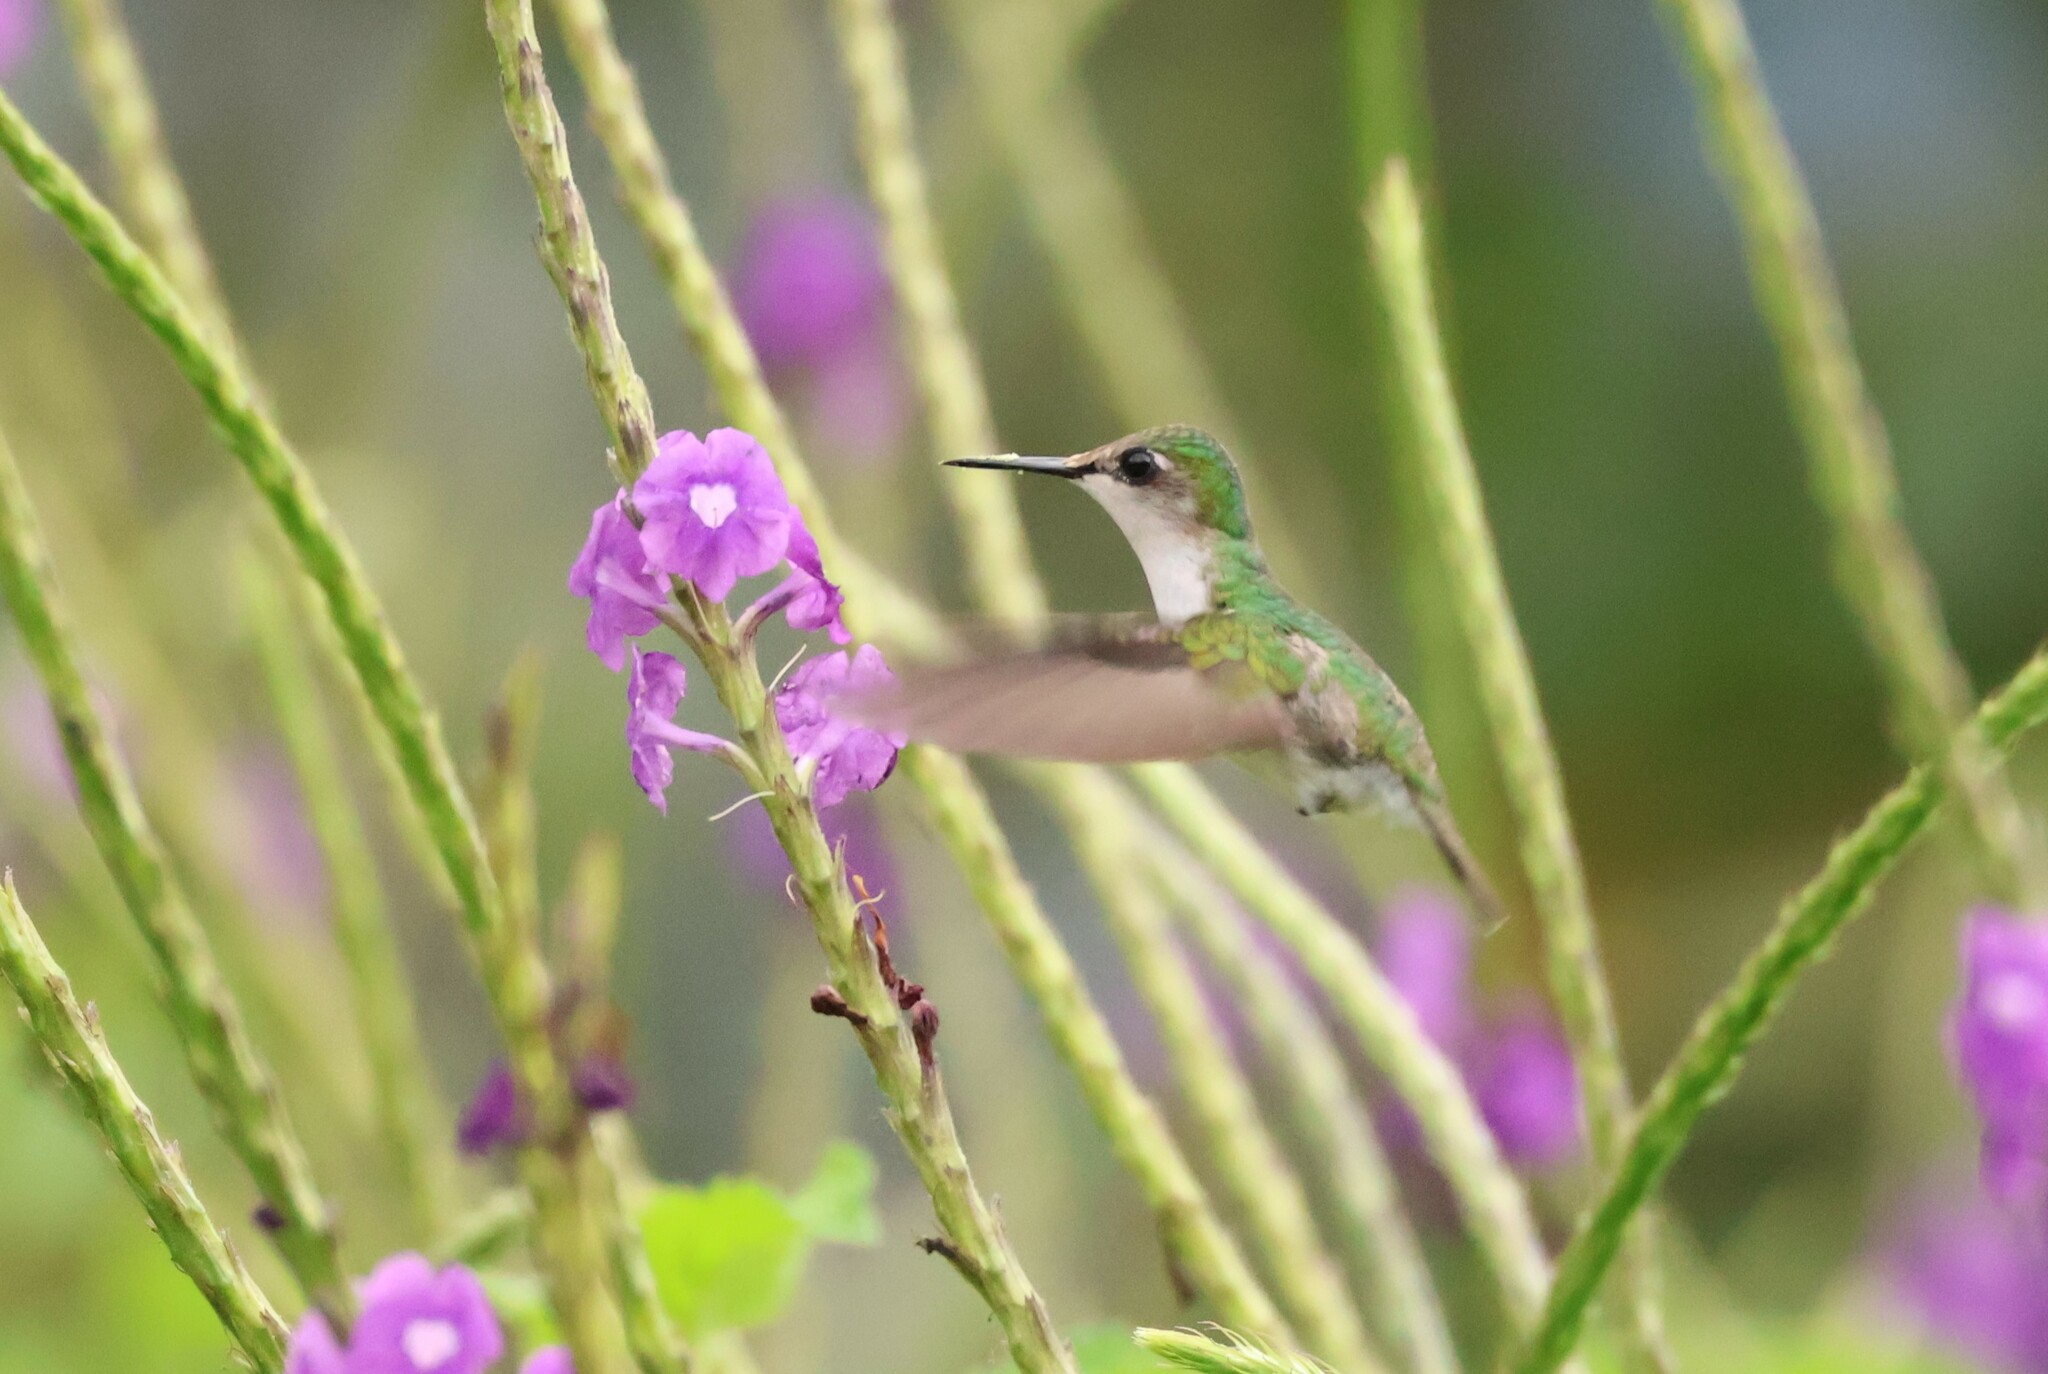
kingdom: Animalia
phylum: Chordata
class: Aves
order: Apodiformes
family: Trochilidae
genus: Microchera
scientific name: Microchera albocoronata
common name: Snowcap
